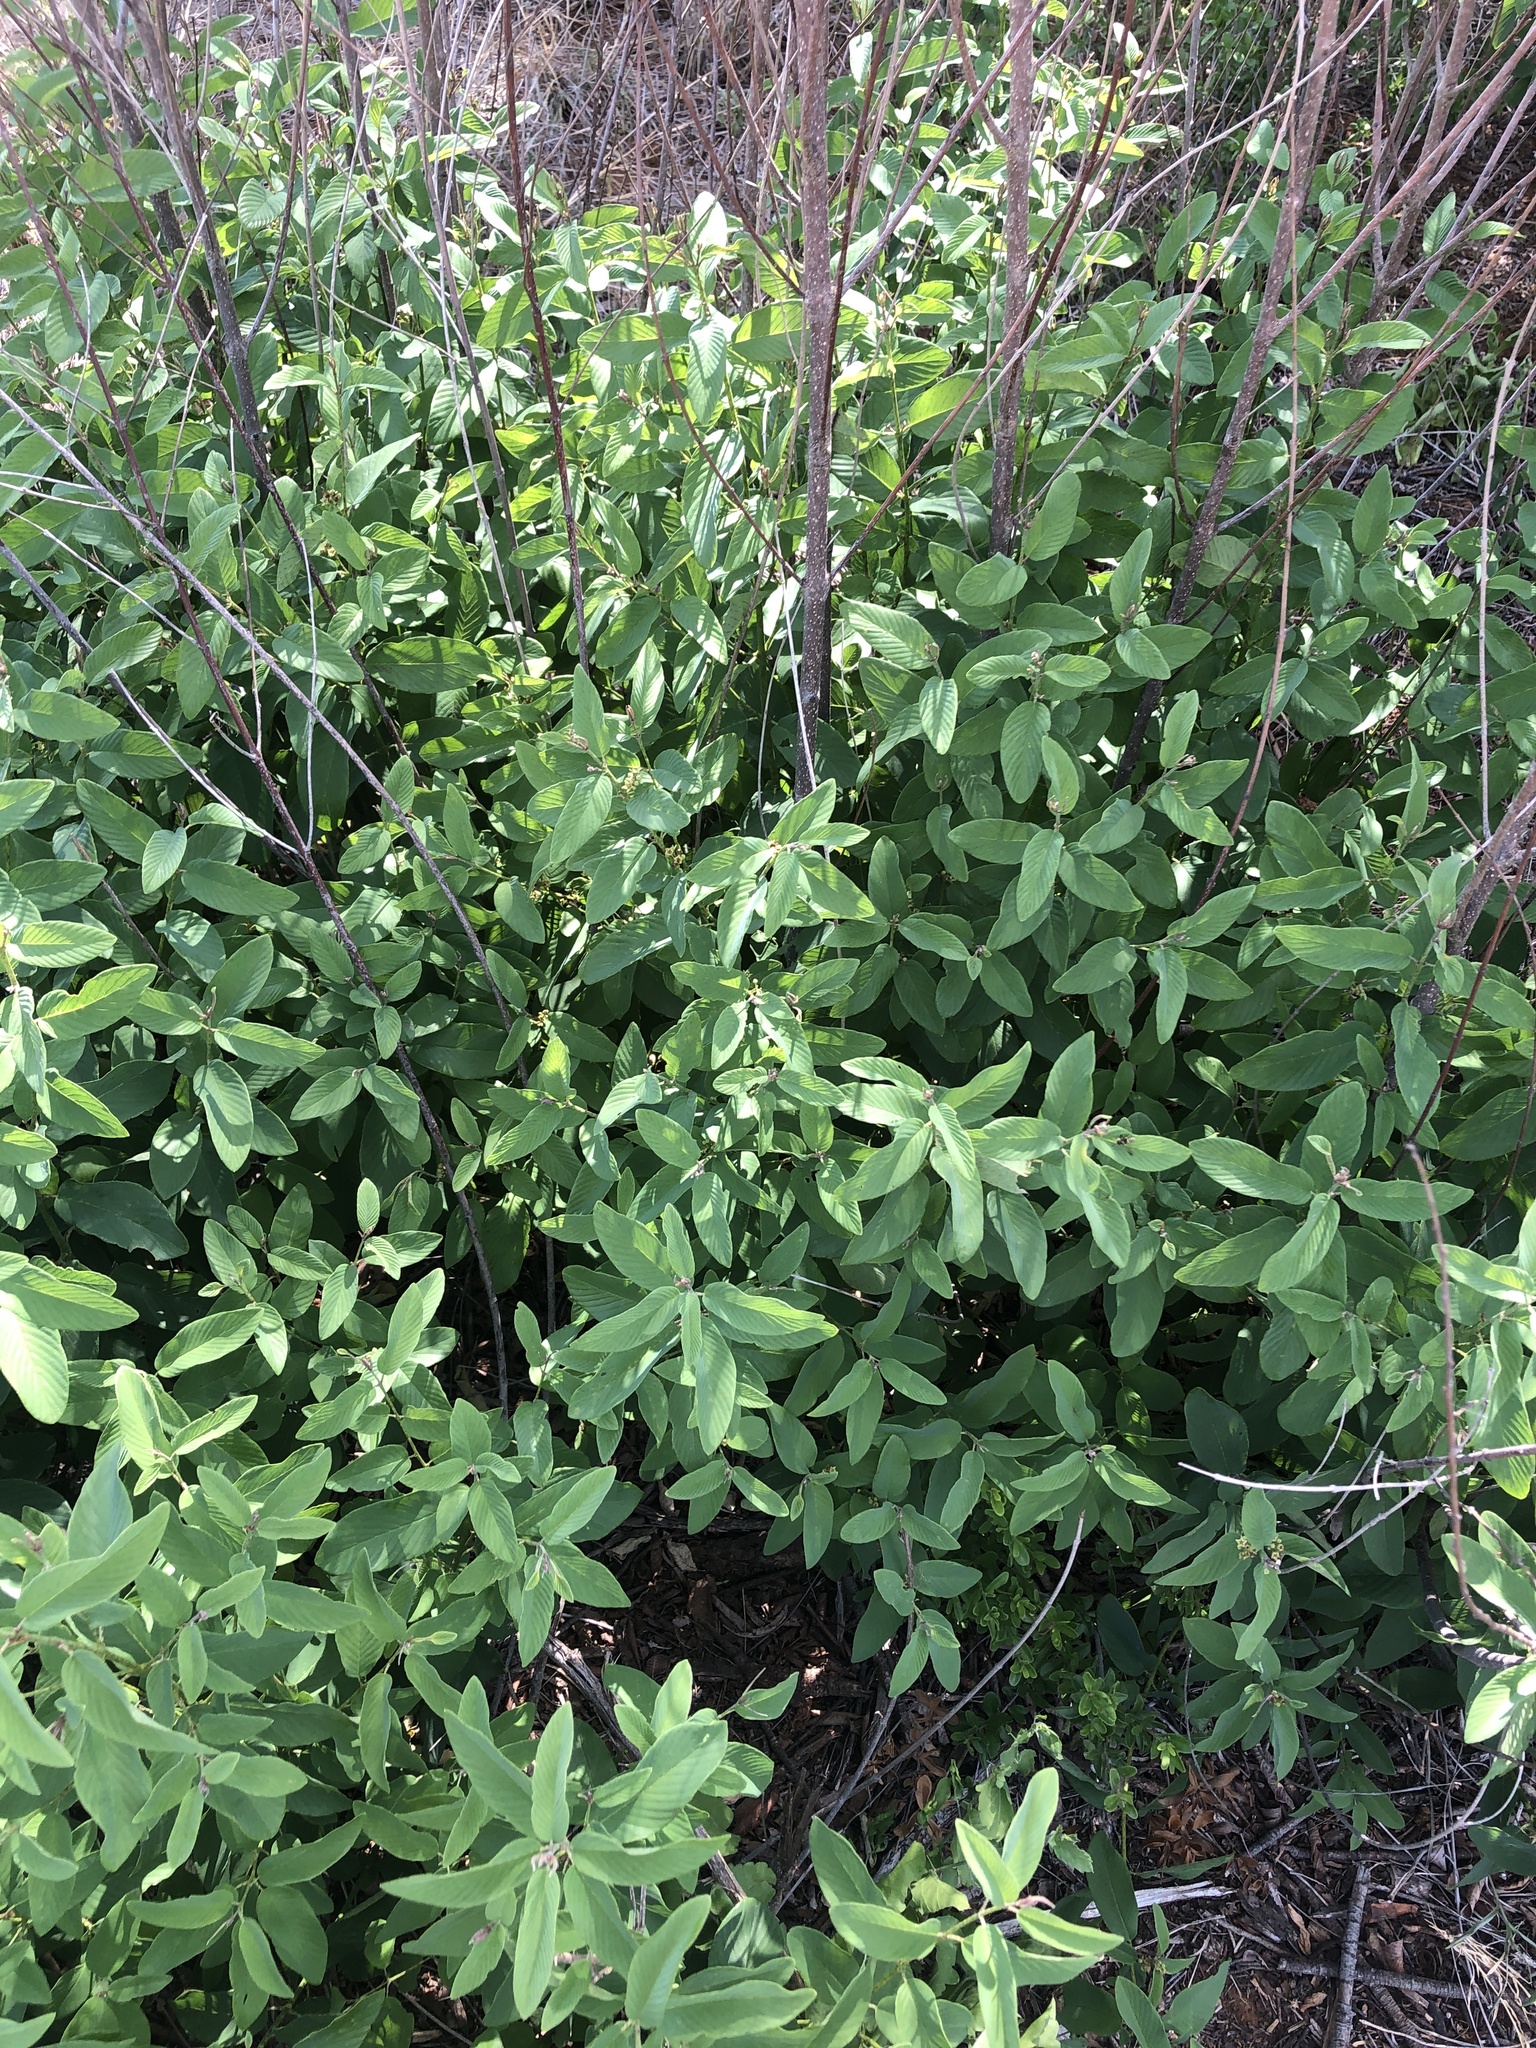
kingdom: Plantae
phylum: Tracheophyta
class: Magnoliopsida
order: Rosales
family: Rhamnaceae
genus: Karwinskia
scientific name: Karwinskia humboldtiana
